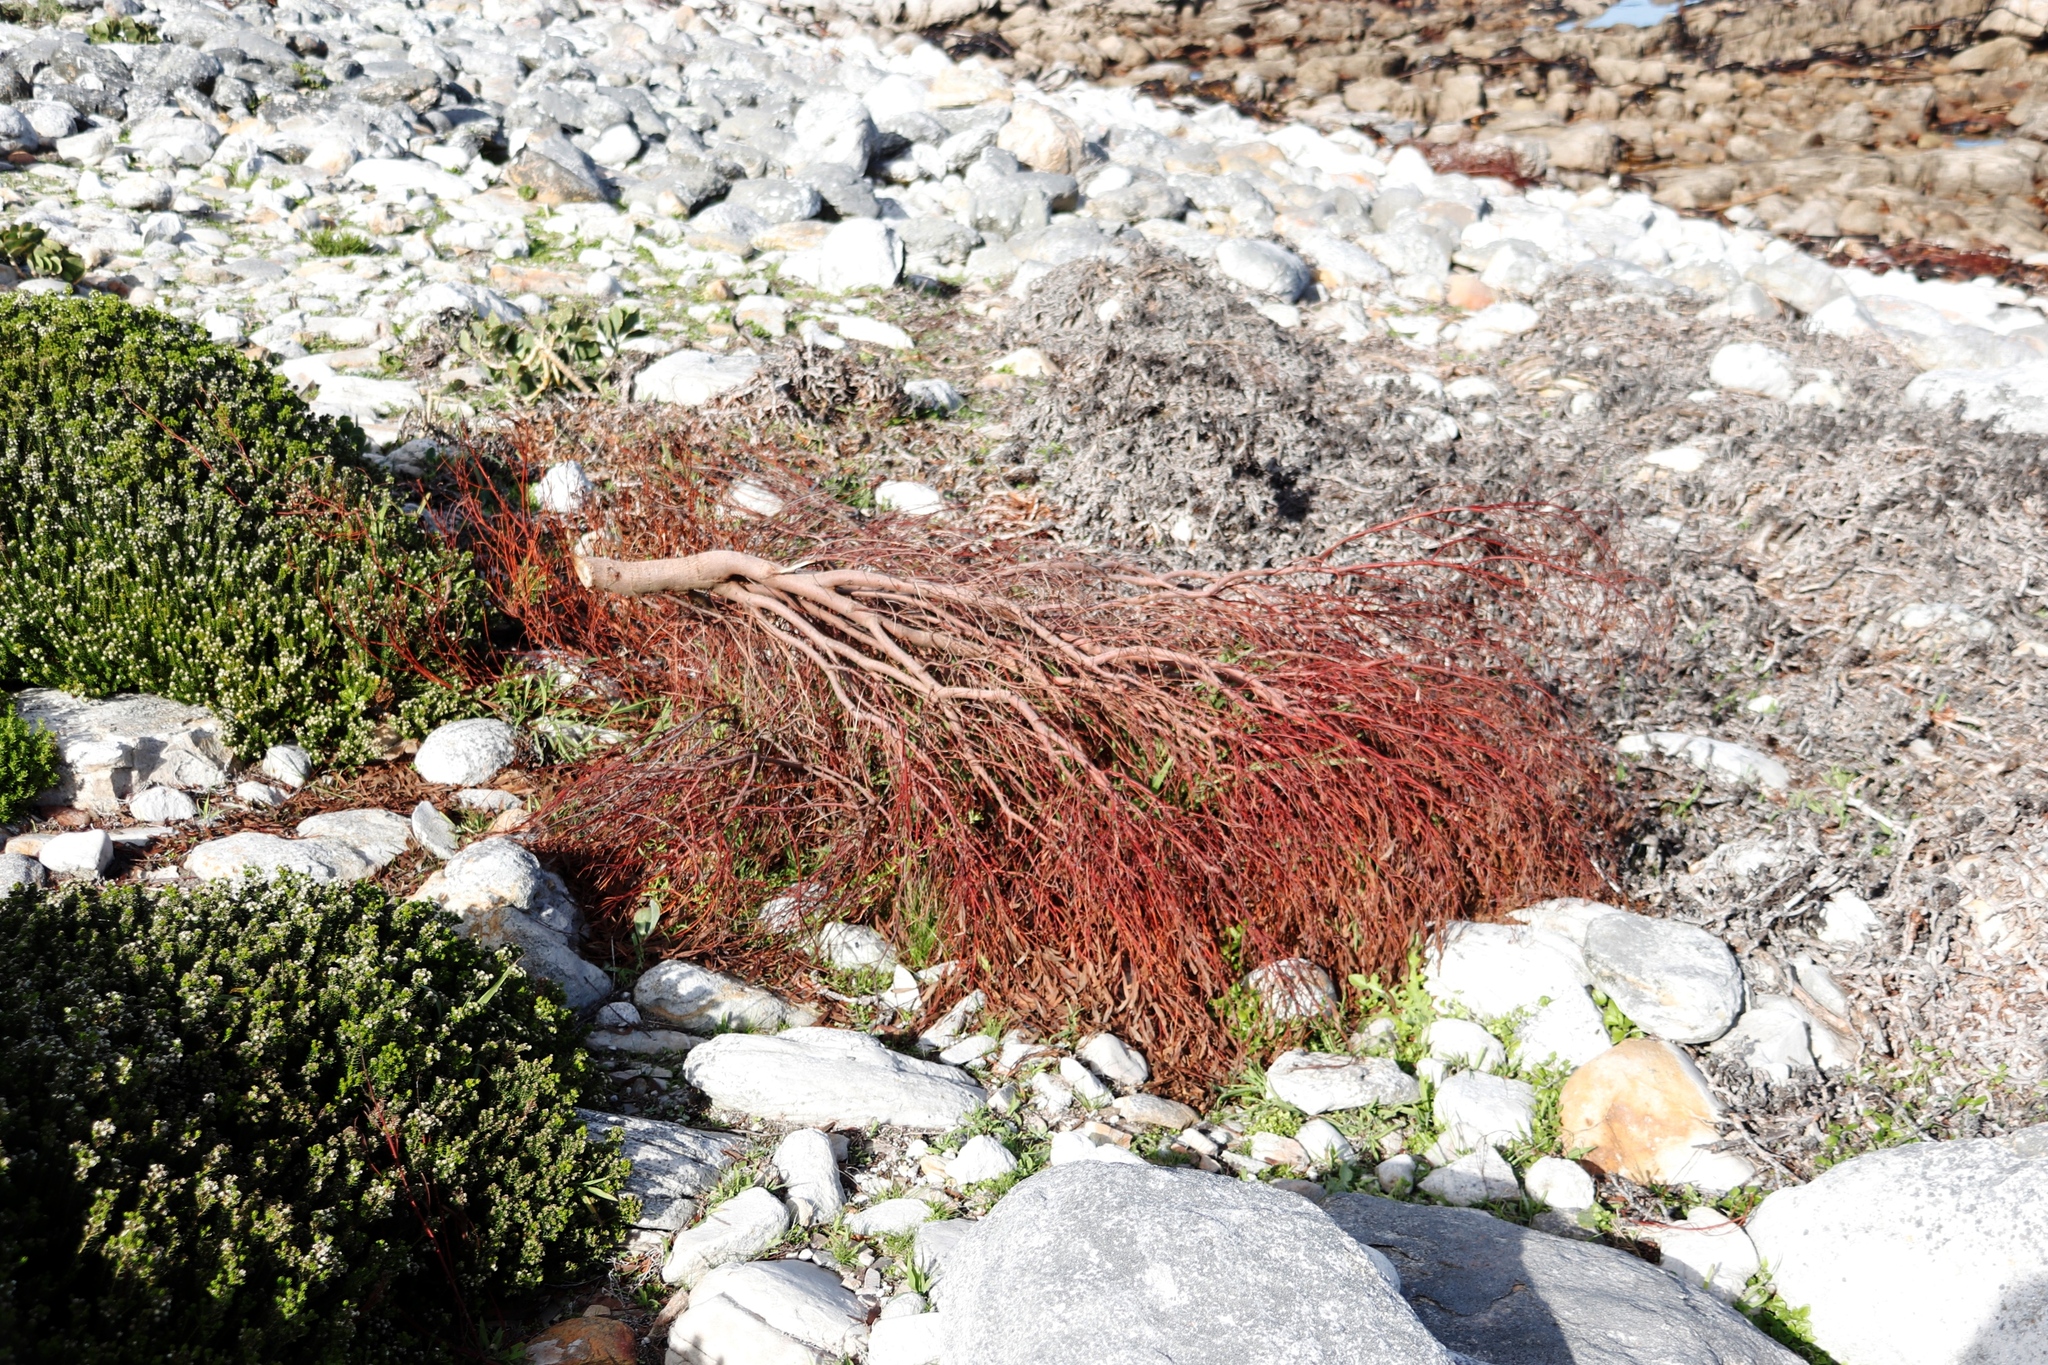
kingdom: Plantae
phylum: Tracheophyta
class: Magnoliopsida
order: Fabales
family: Fabaceae
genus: Acacia
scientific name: Acacia cyclops
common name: Coastal wattle
